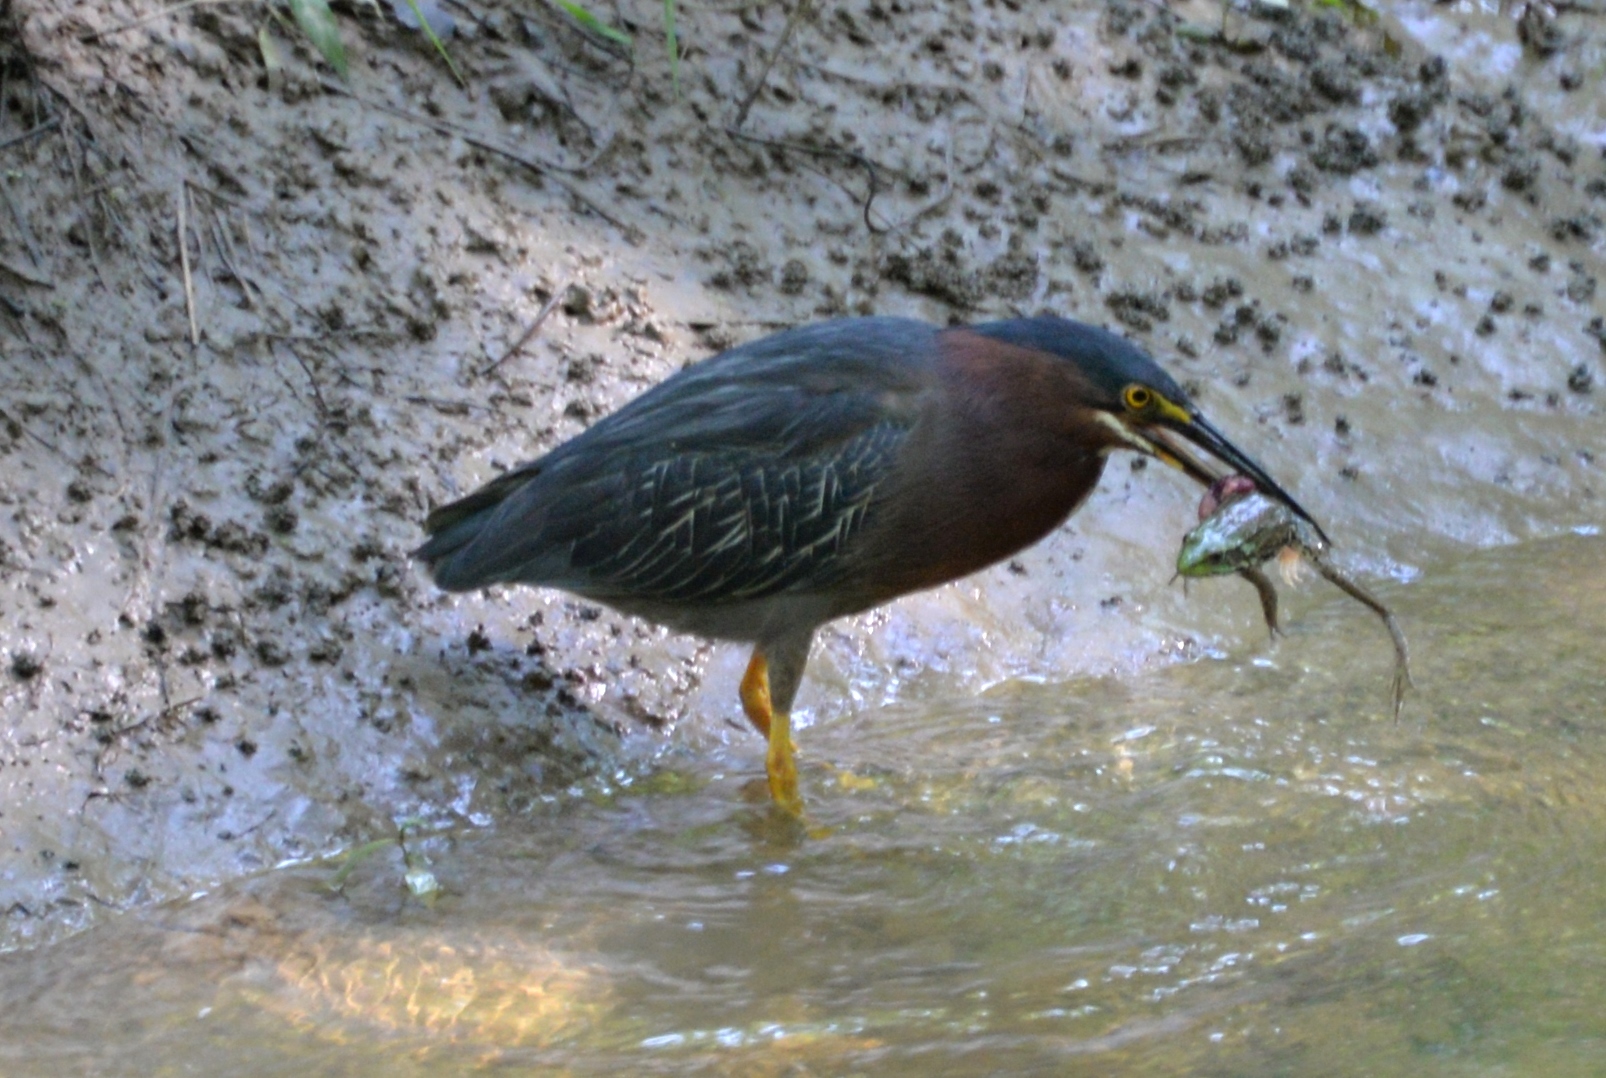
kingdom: Animalia
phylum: Chordata
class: Amphibia
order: Anura
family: Ranidae
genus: Lithobates
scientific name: Lithobates clamitans
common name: Green frog
